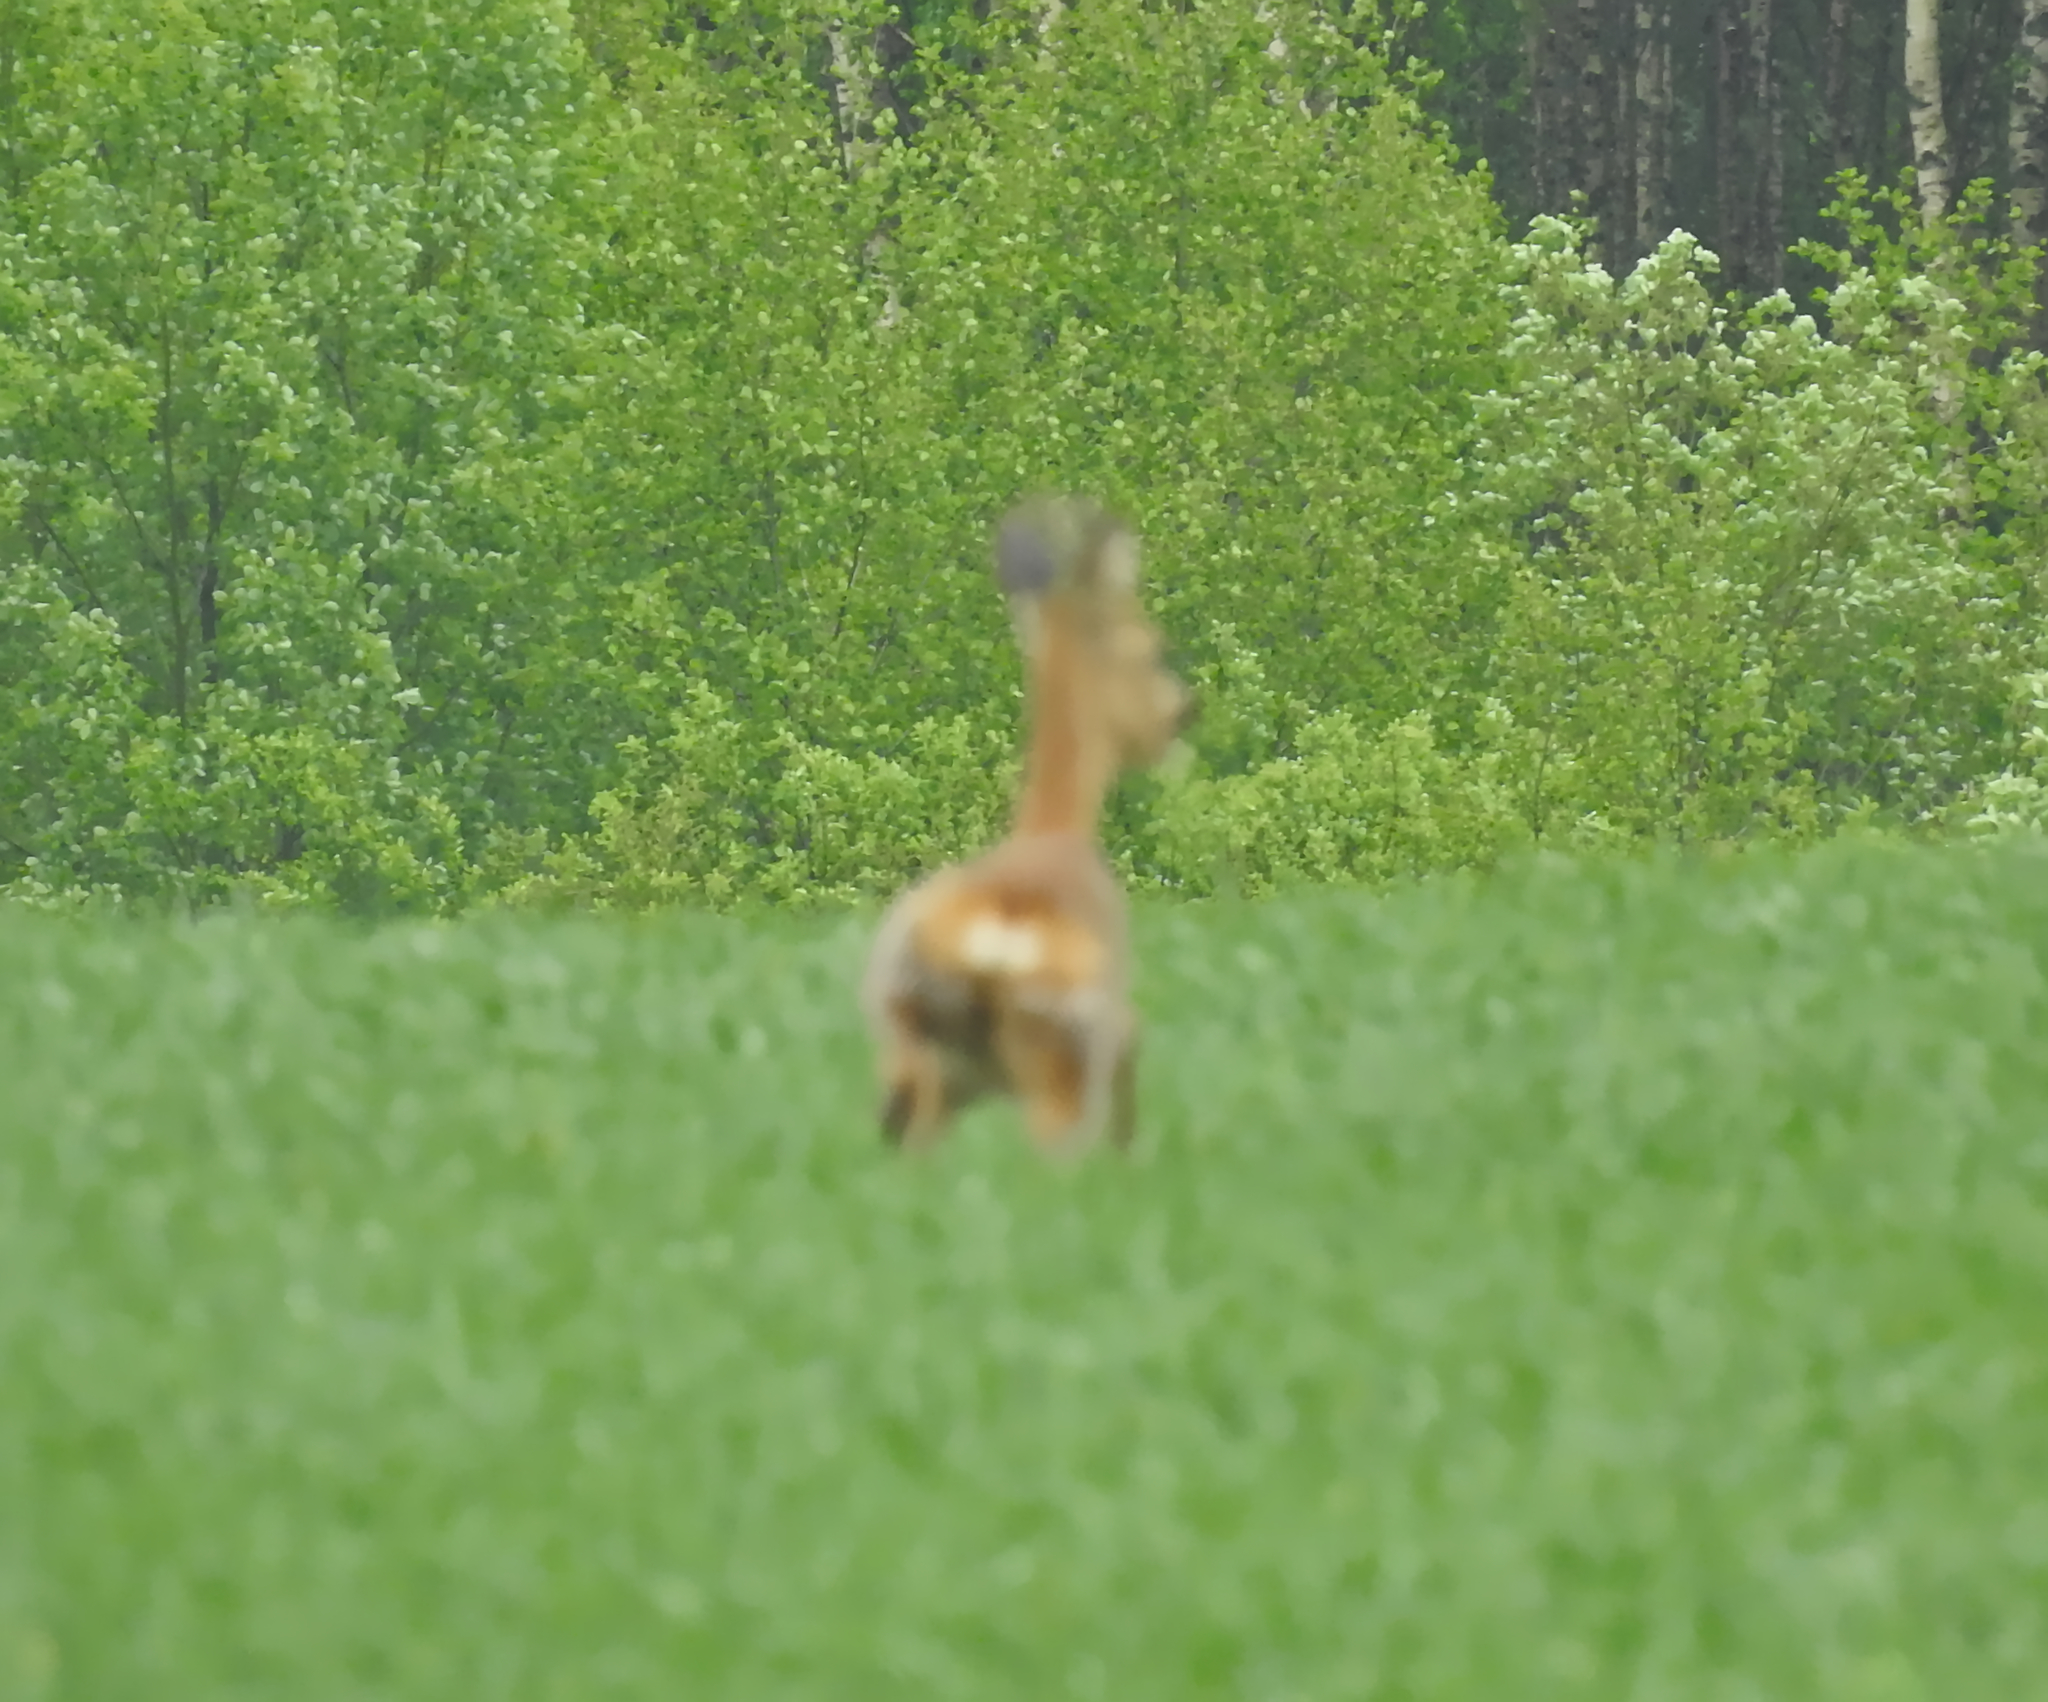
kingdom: Animalia
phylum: Chordata
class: Mammalia
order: Artiodactyla
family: Cervidae
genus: Capreolus
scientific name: Capreolus capreolus
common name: Western roe deer
